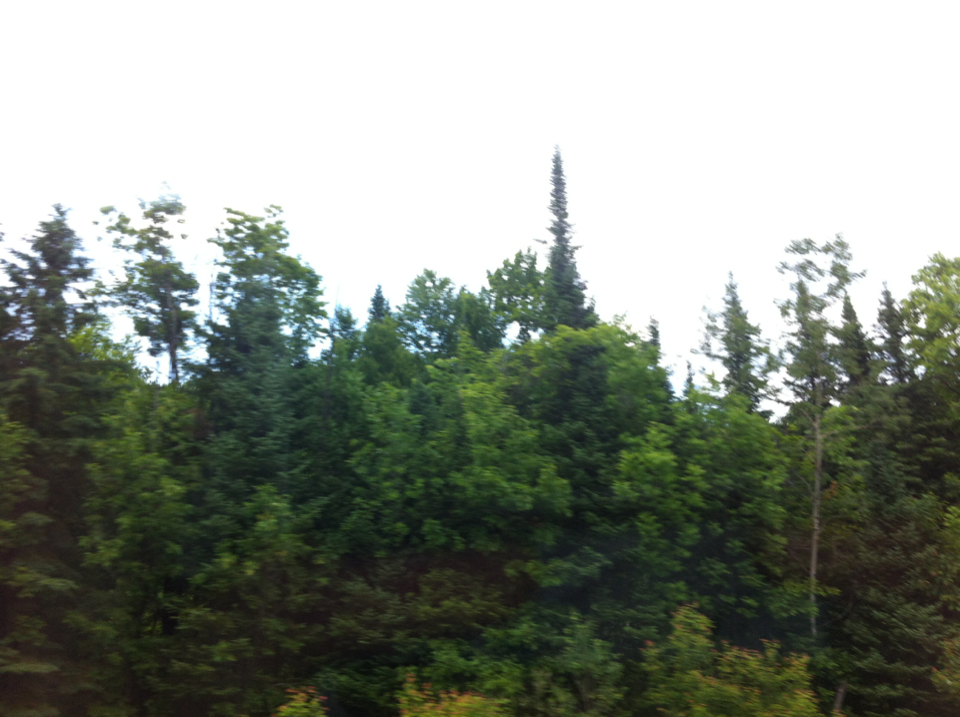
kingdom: Plantae
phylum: Tracheophyta
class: Pinopsida
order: Pinales
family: Pinaceae
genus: Abies
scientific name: Abies balsamea
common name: Balsam fir
